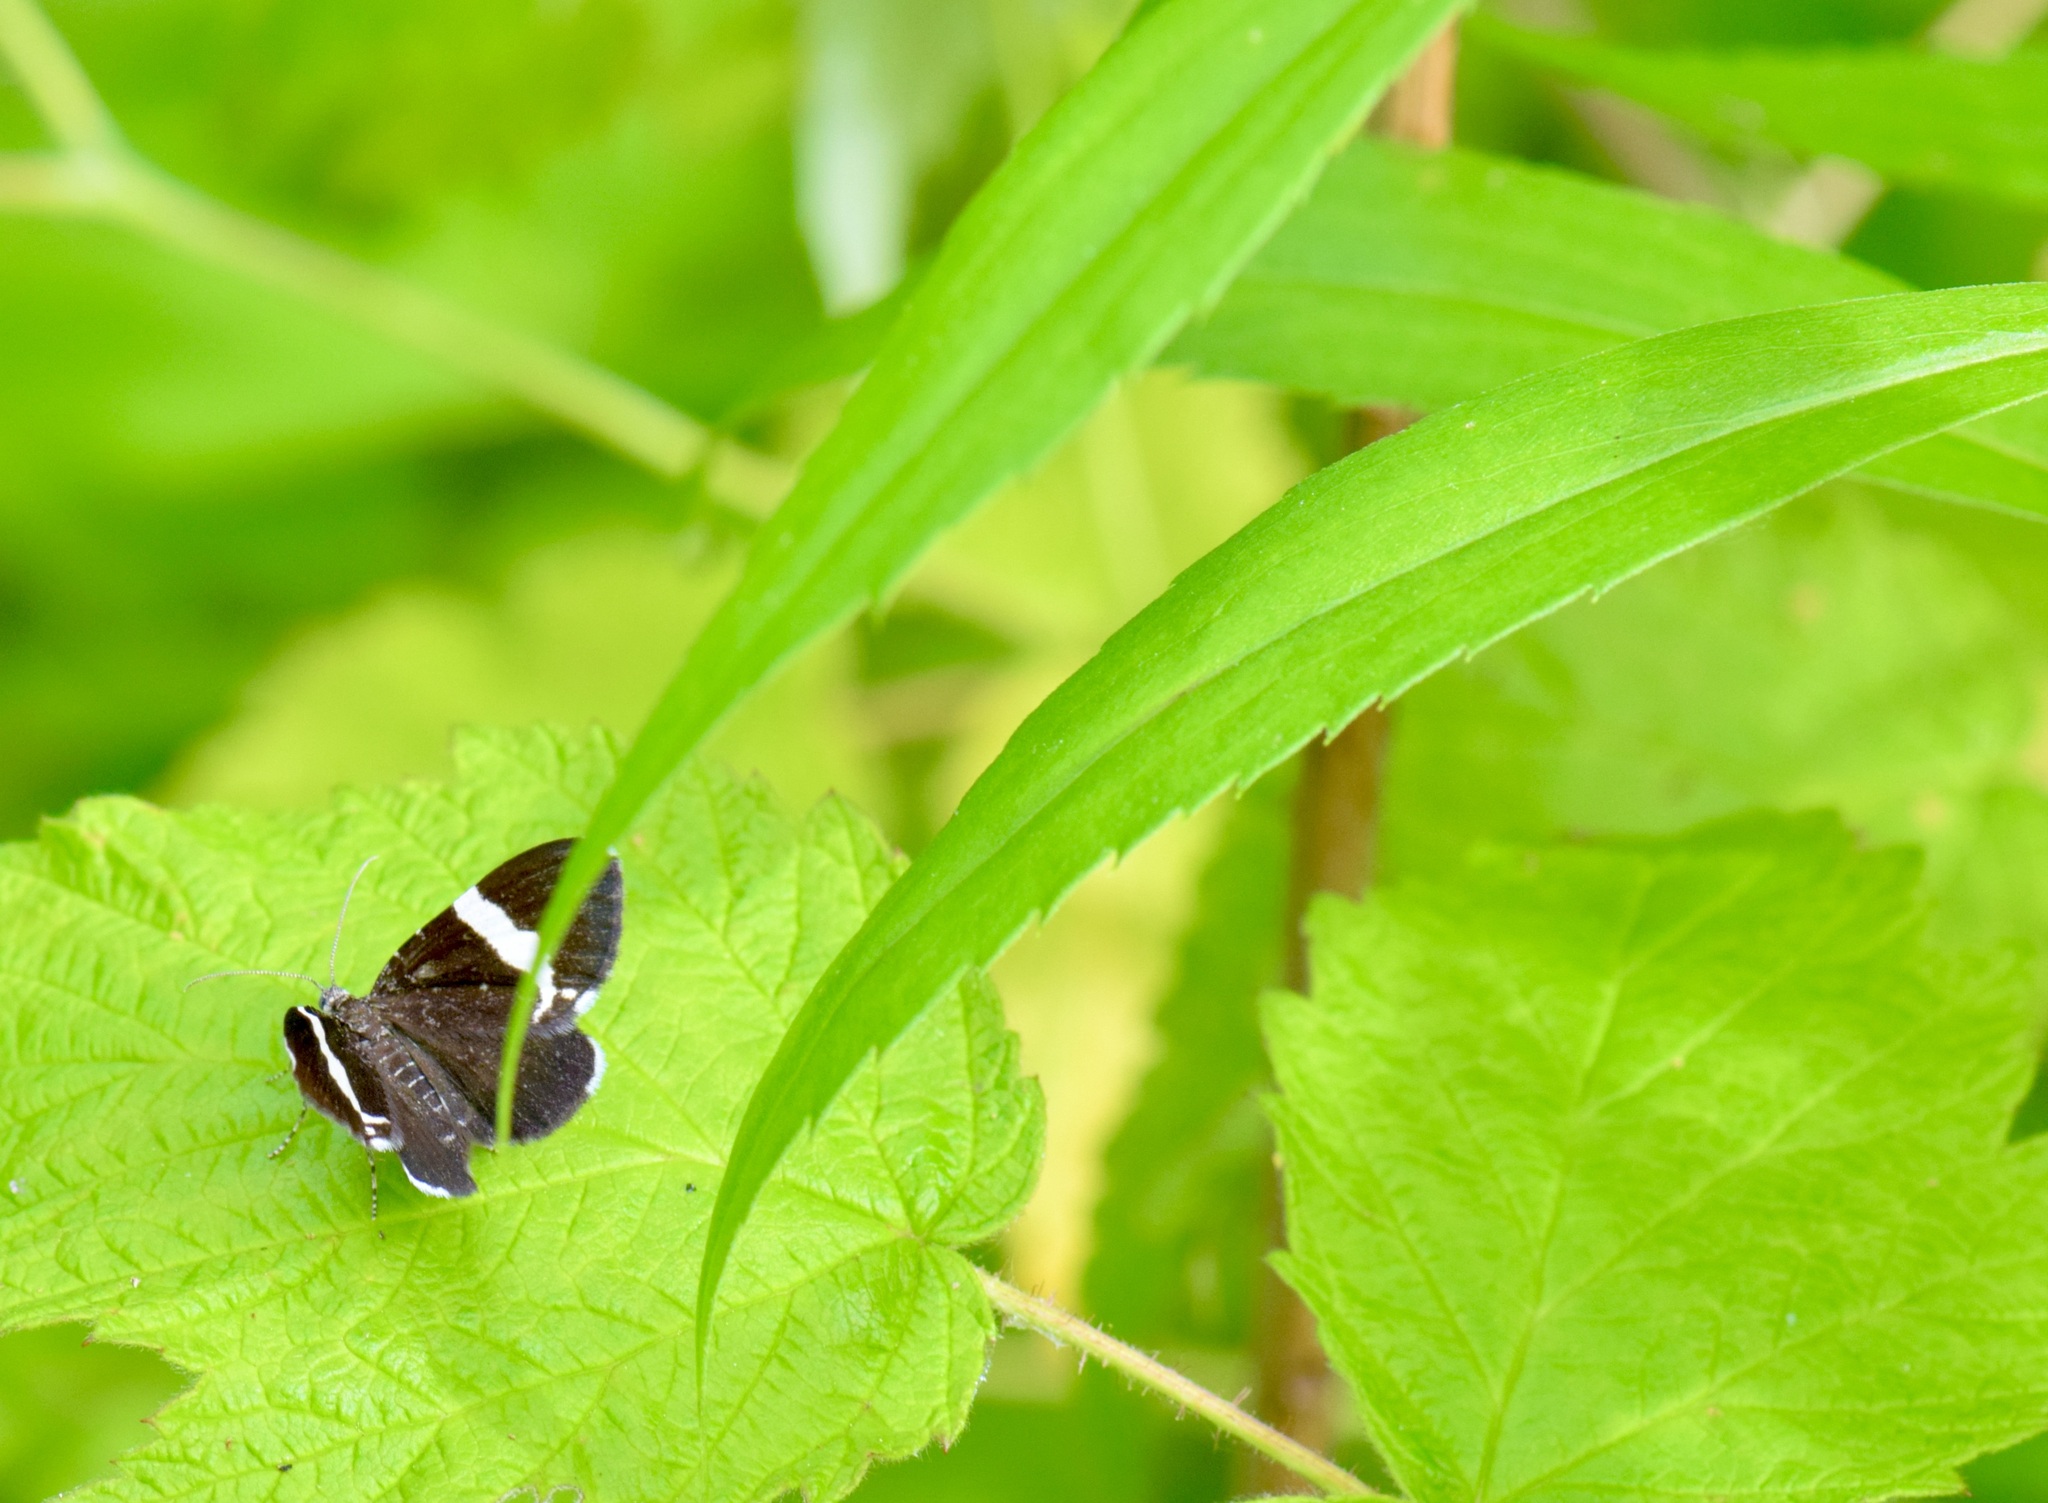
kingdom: Animalia
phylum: Arthropoda
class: Insecta
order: Lepidoptera
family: Geometridae
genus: Trichodezia
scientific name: Trichodezia albovittata
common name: White striped black
